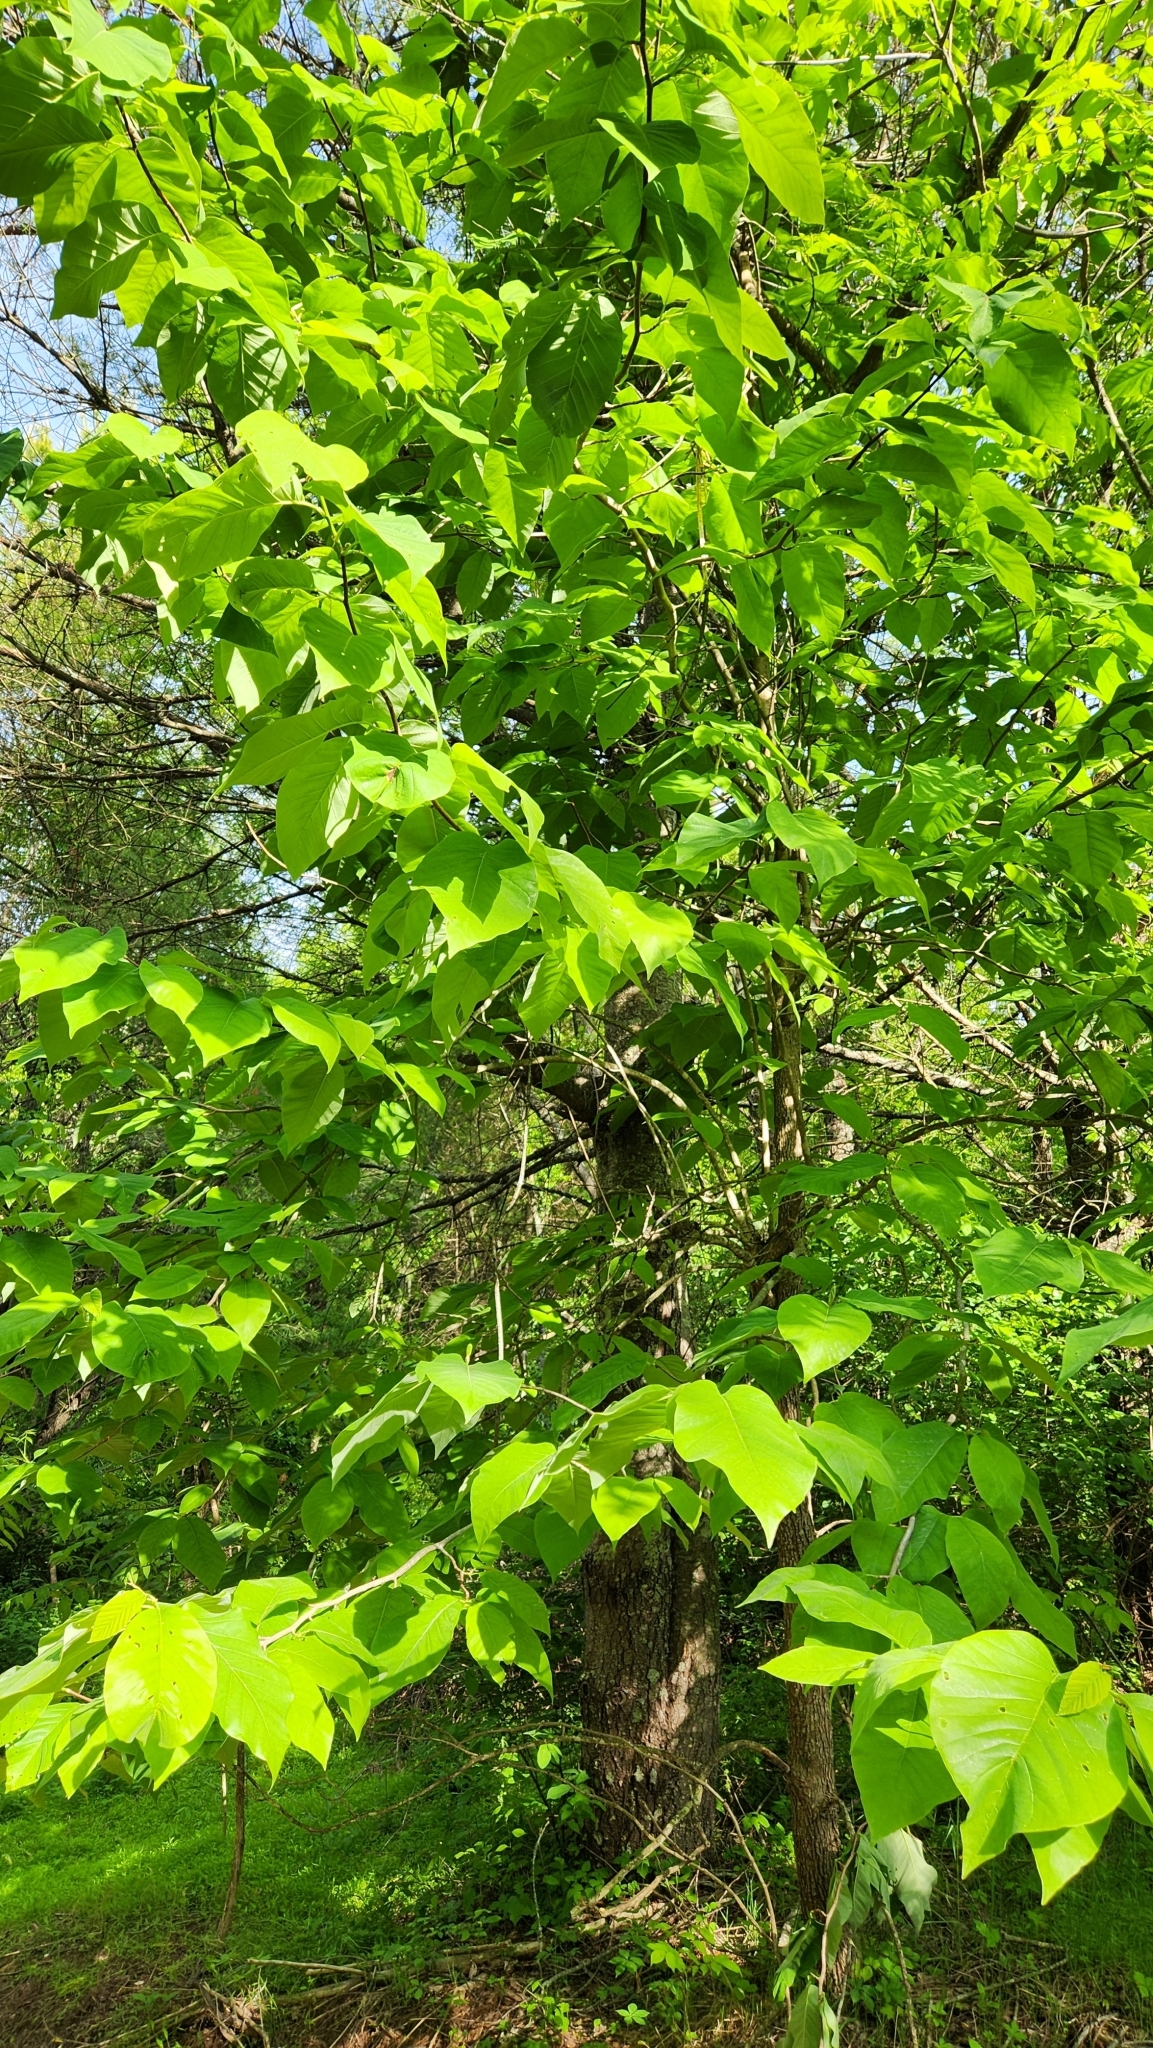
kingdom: Plantae
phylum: Tracheophyta
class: Magnoliopsida
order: Magnoliales
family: Magnoliaceae
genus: Magnolia
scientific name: Magnolia acuminata
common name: Cucumber magnolia
